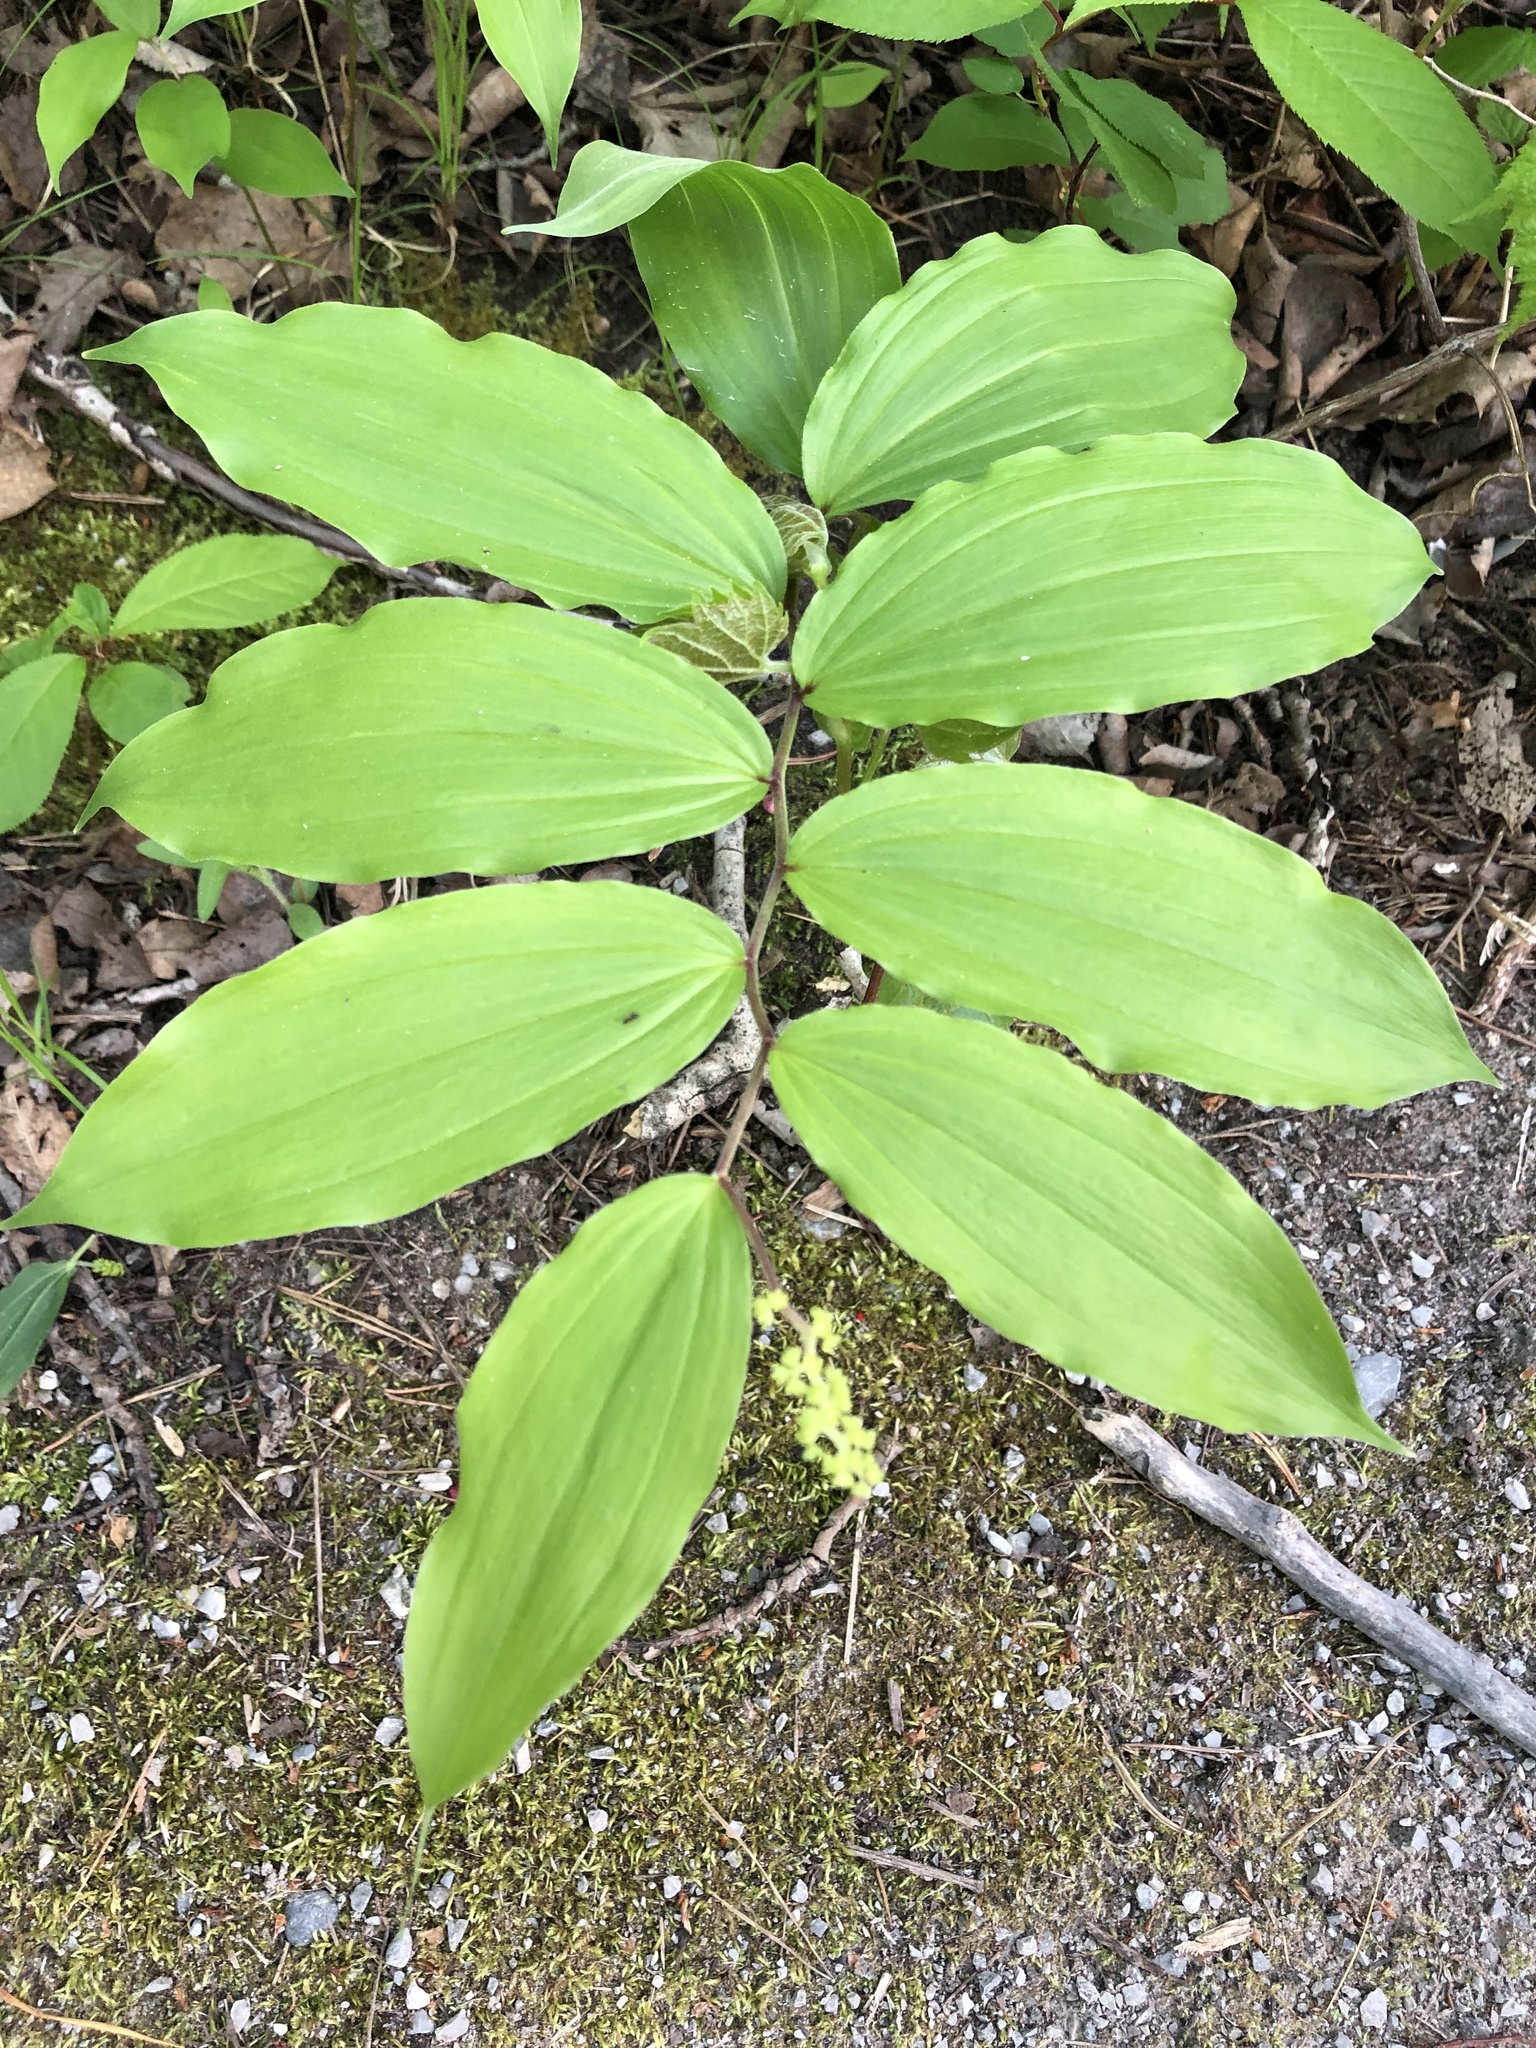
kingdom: Plantae
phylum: Tracheophyta
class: Liliopsida
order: Asparagales
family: Asparagaceae
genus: Maianthemum
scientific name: Maianthemum racemosum
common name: False spikenard
